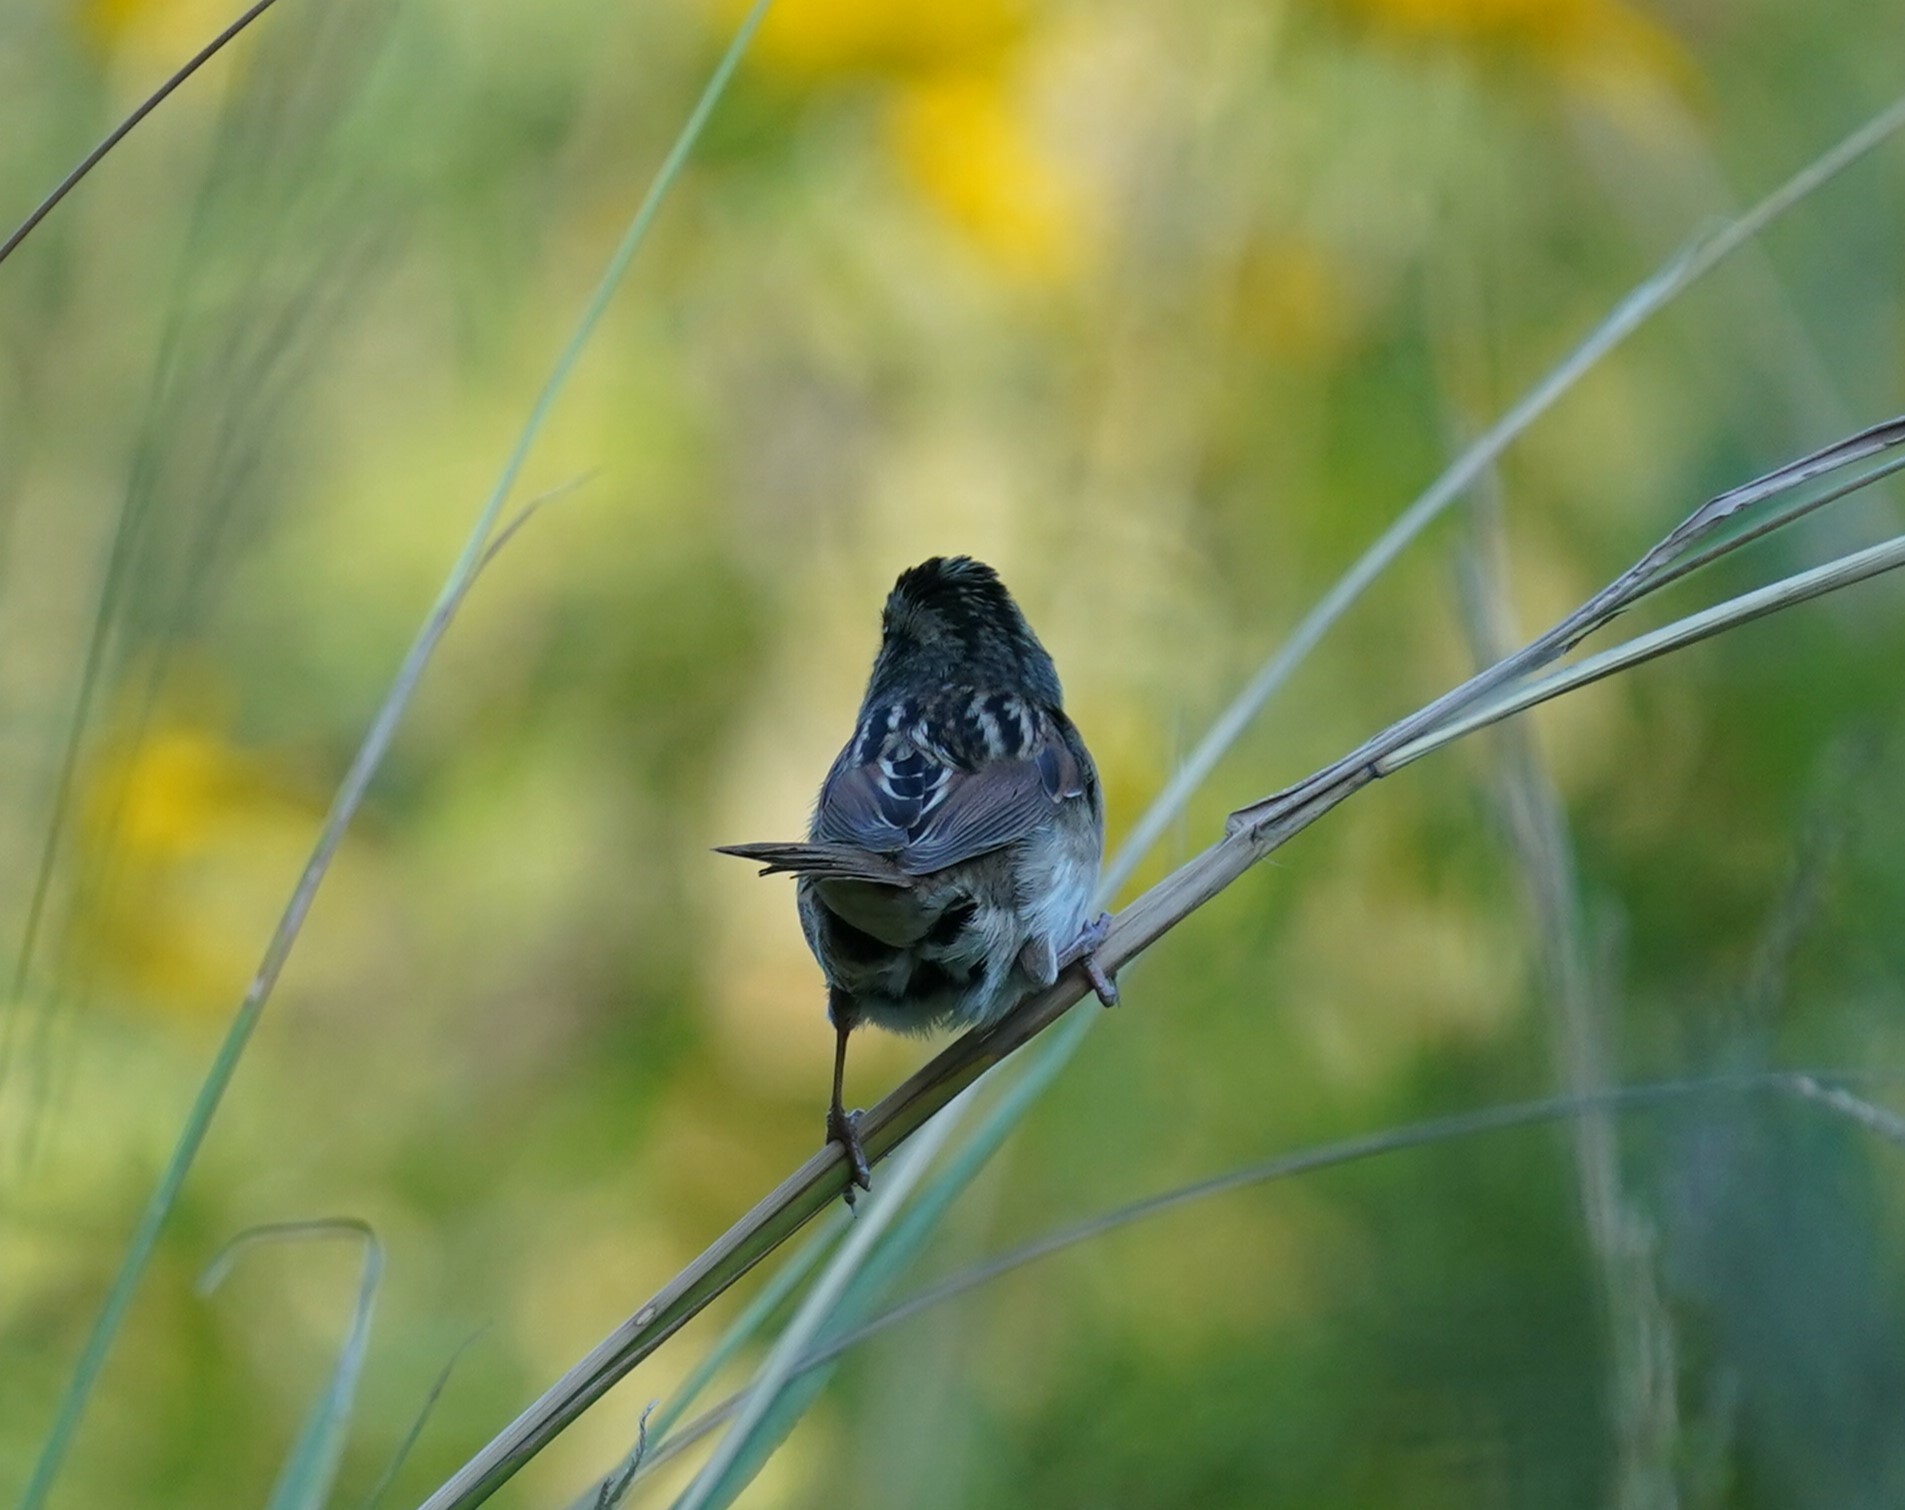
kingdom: Animalia
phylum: Chordata
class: Aves
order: Passeriformes
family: Passerellidae
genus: Melospiza
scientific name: Melospiza georgiana
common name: Swamp sparrow
